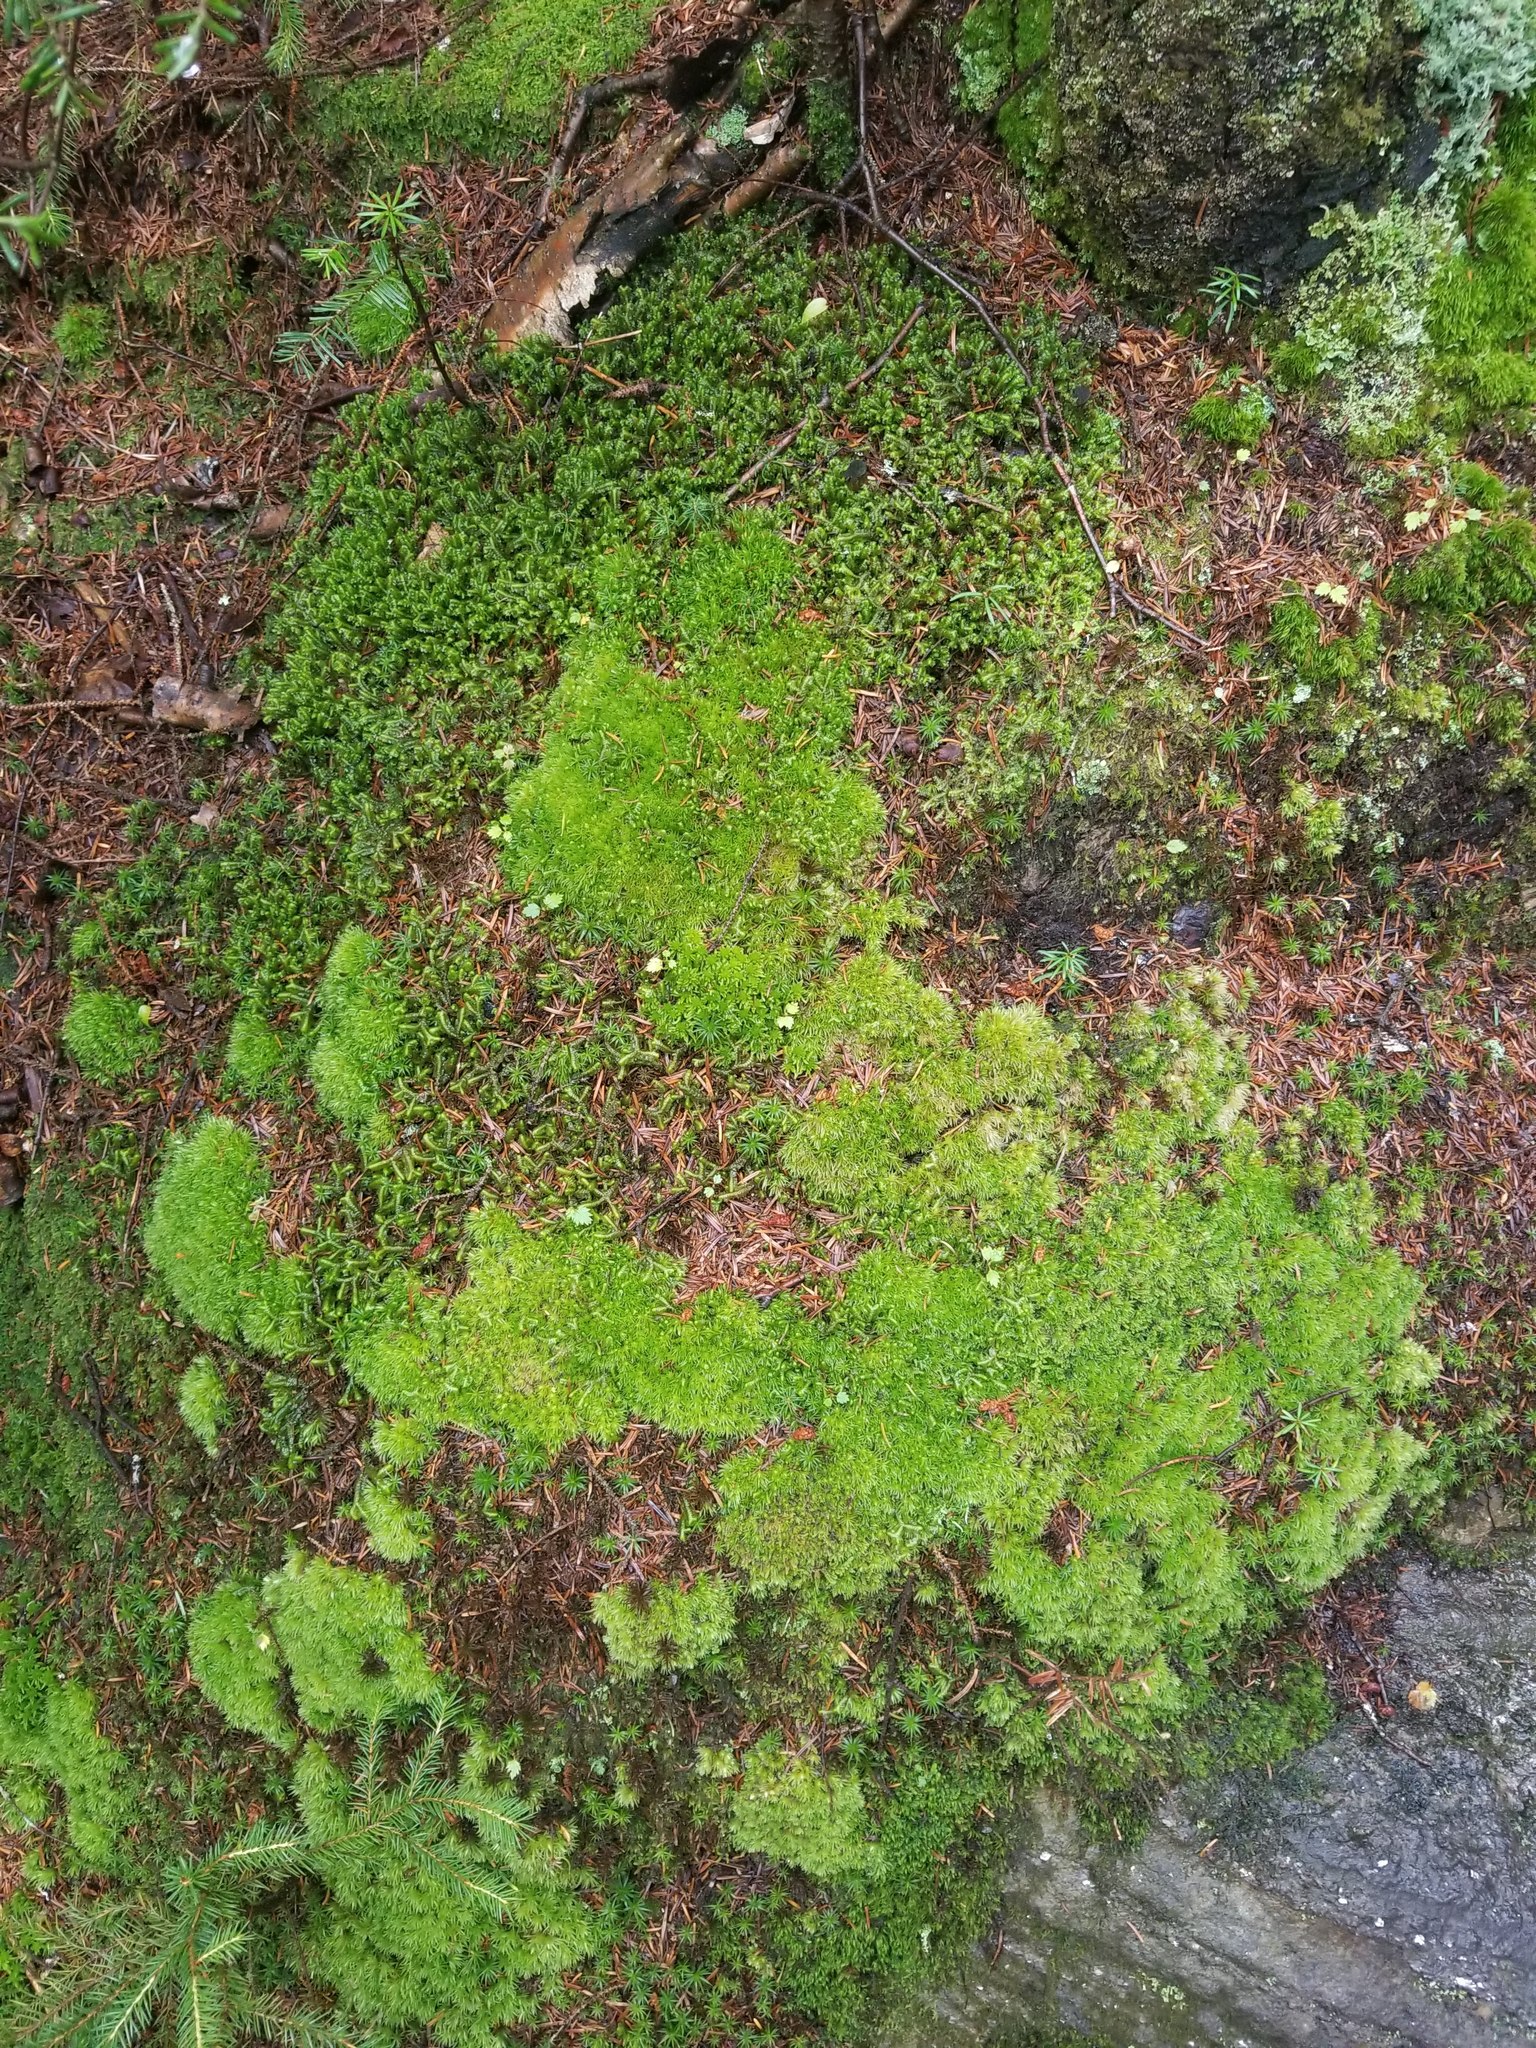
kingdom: Plantae
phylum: Marchantiophyta
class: Jungermanniopsida
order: Jungermanniales
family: Lepidoziaceae
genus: Bazzania
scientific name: Bazzania trilobata
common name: Three-lobed whipwort
